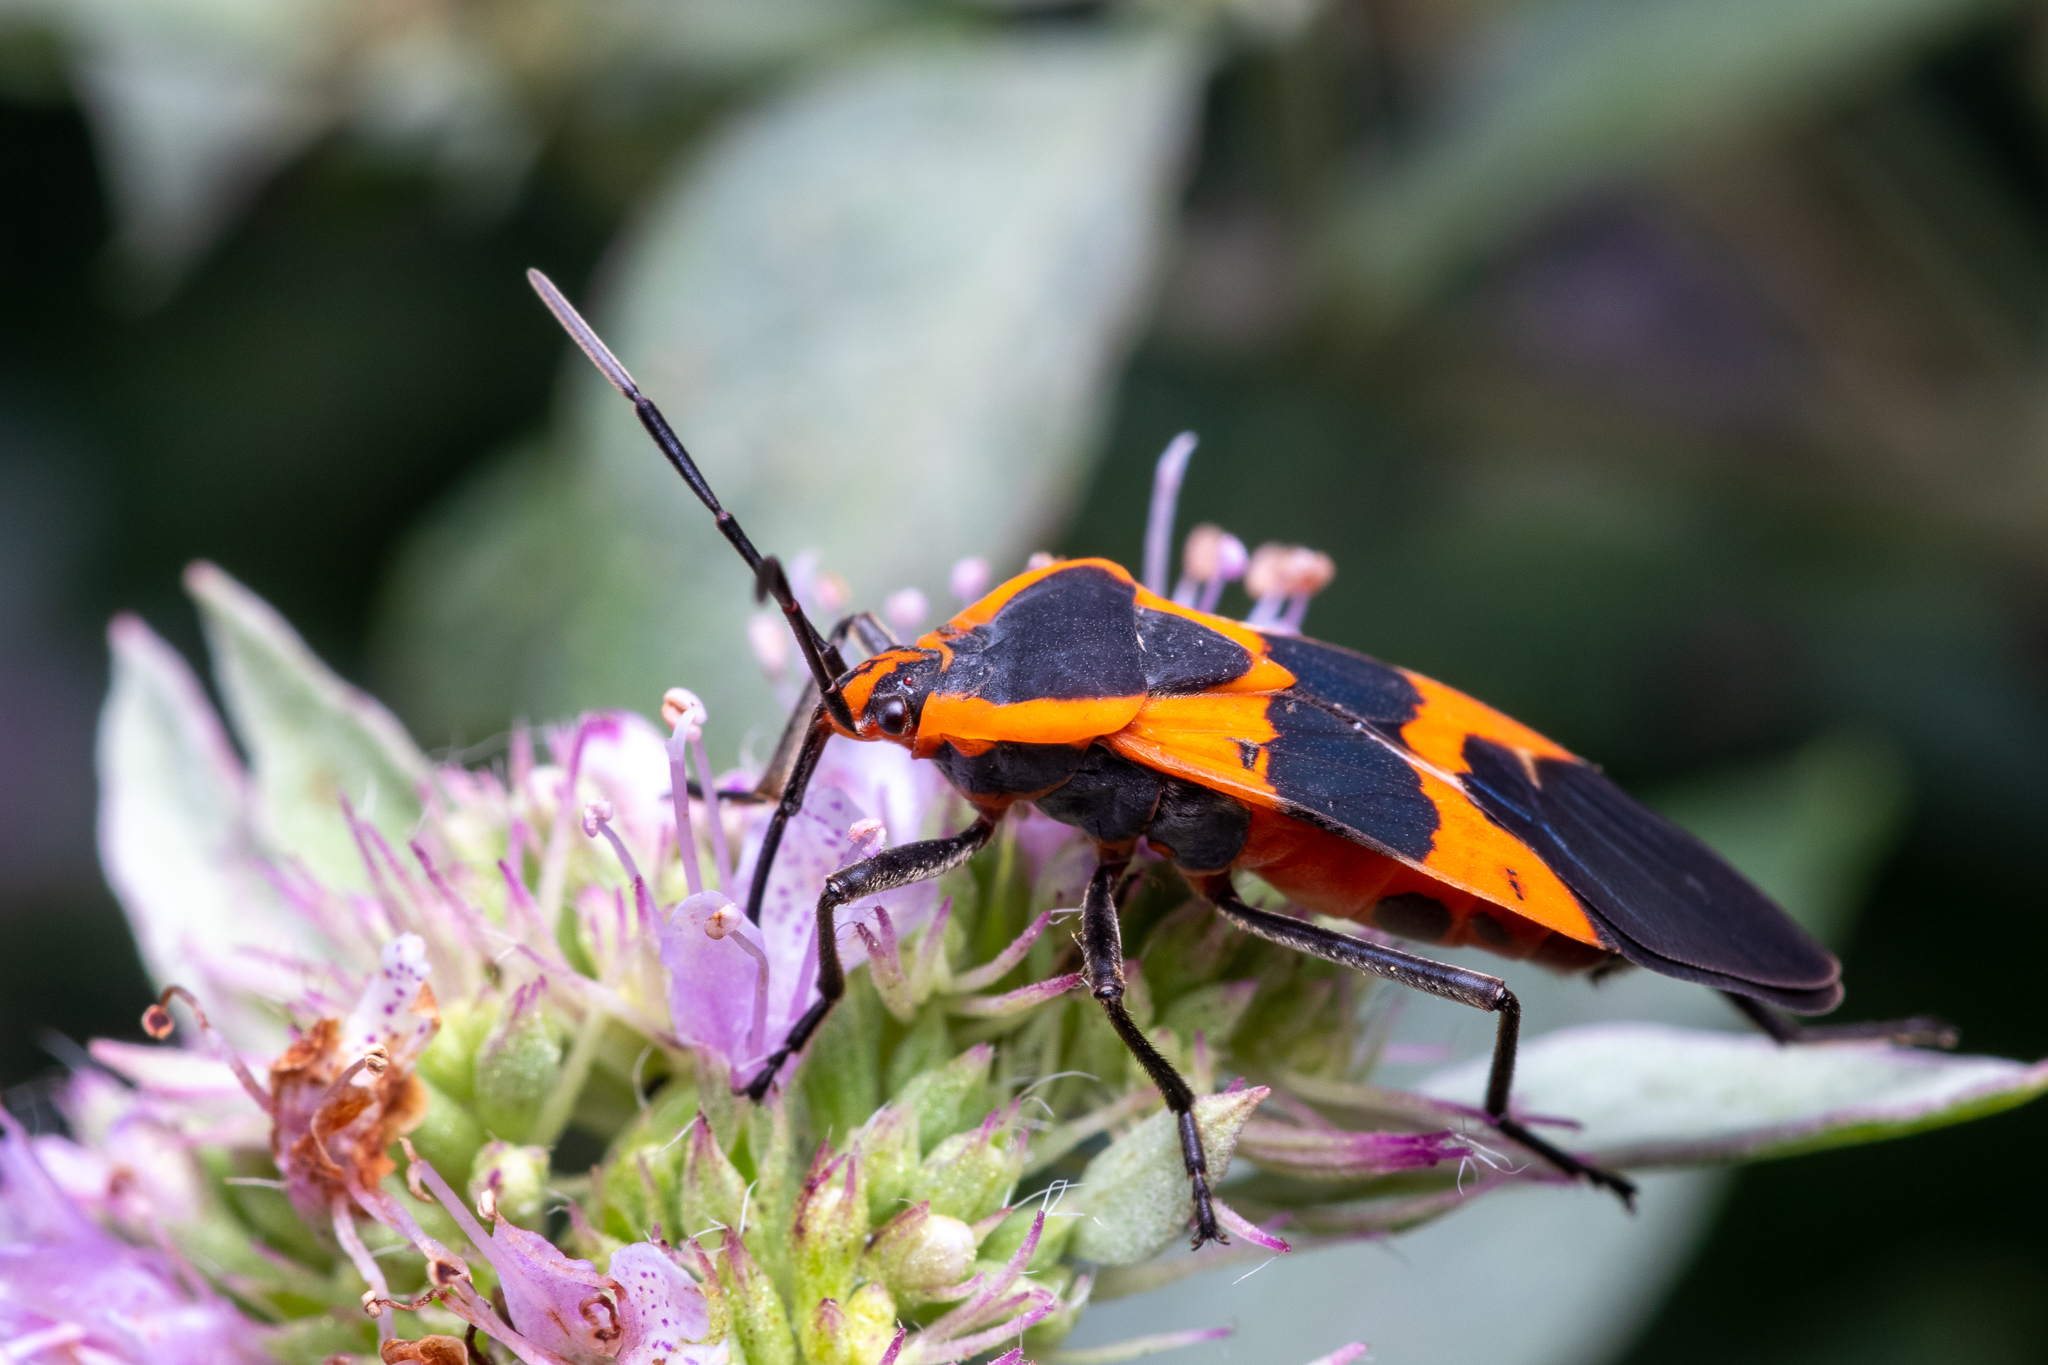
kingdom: Animalia
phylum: Arthropoda
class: Insecta
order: Hemiptera
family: Lygaeidae
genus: Oncopeltus
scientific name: Oncopeltus fasciatus
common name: Large milkweed bug
